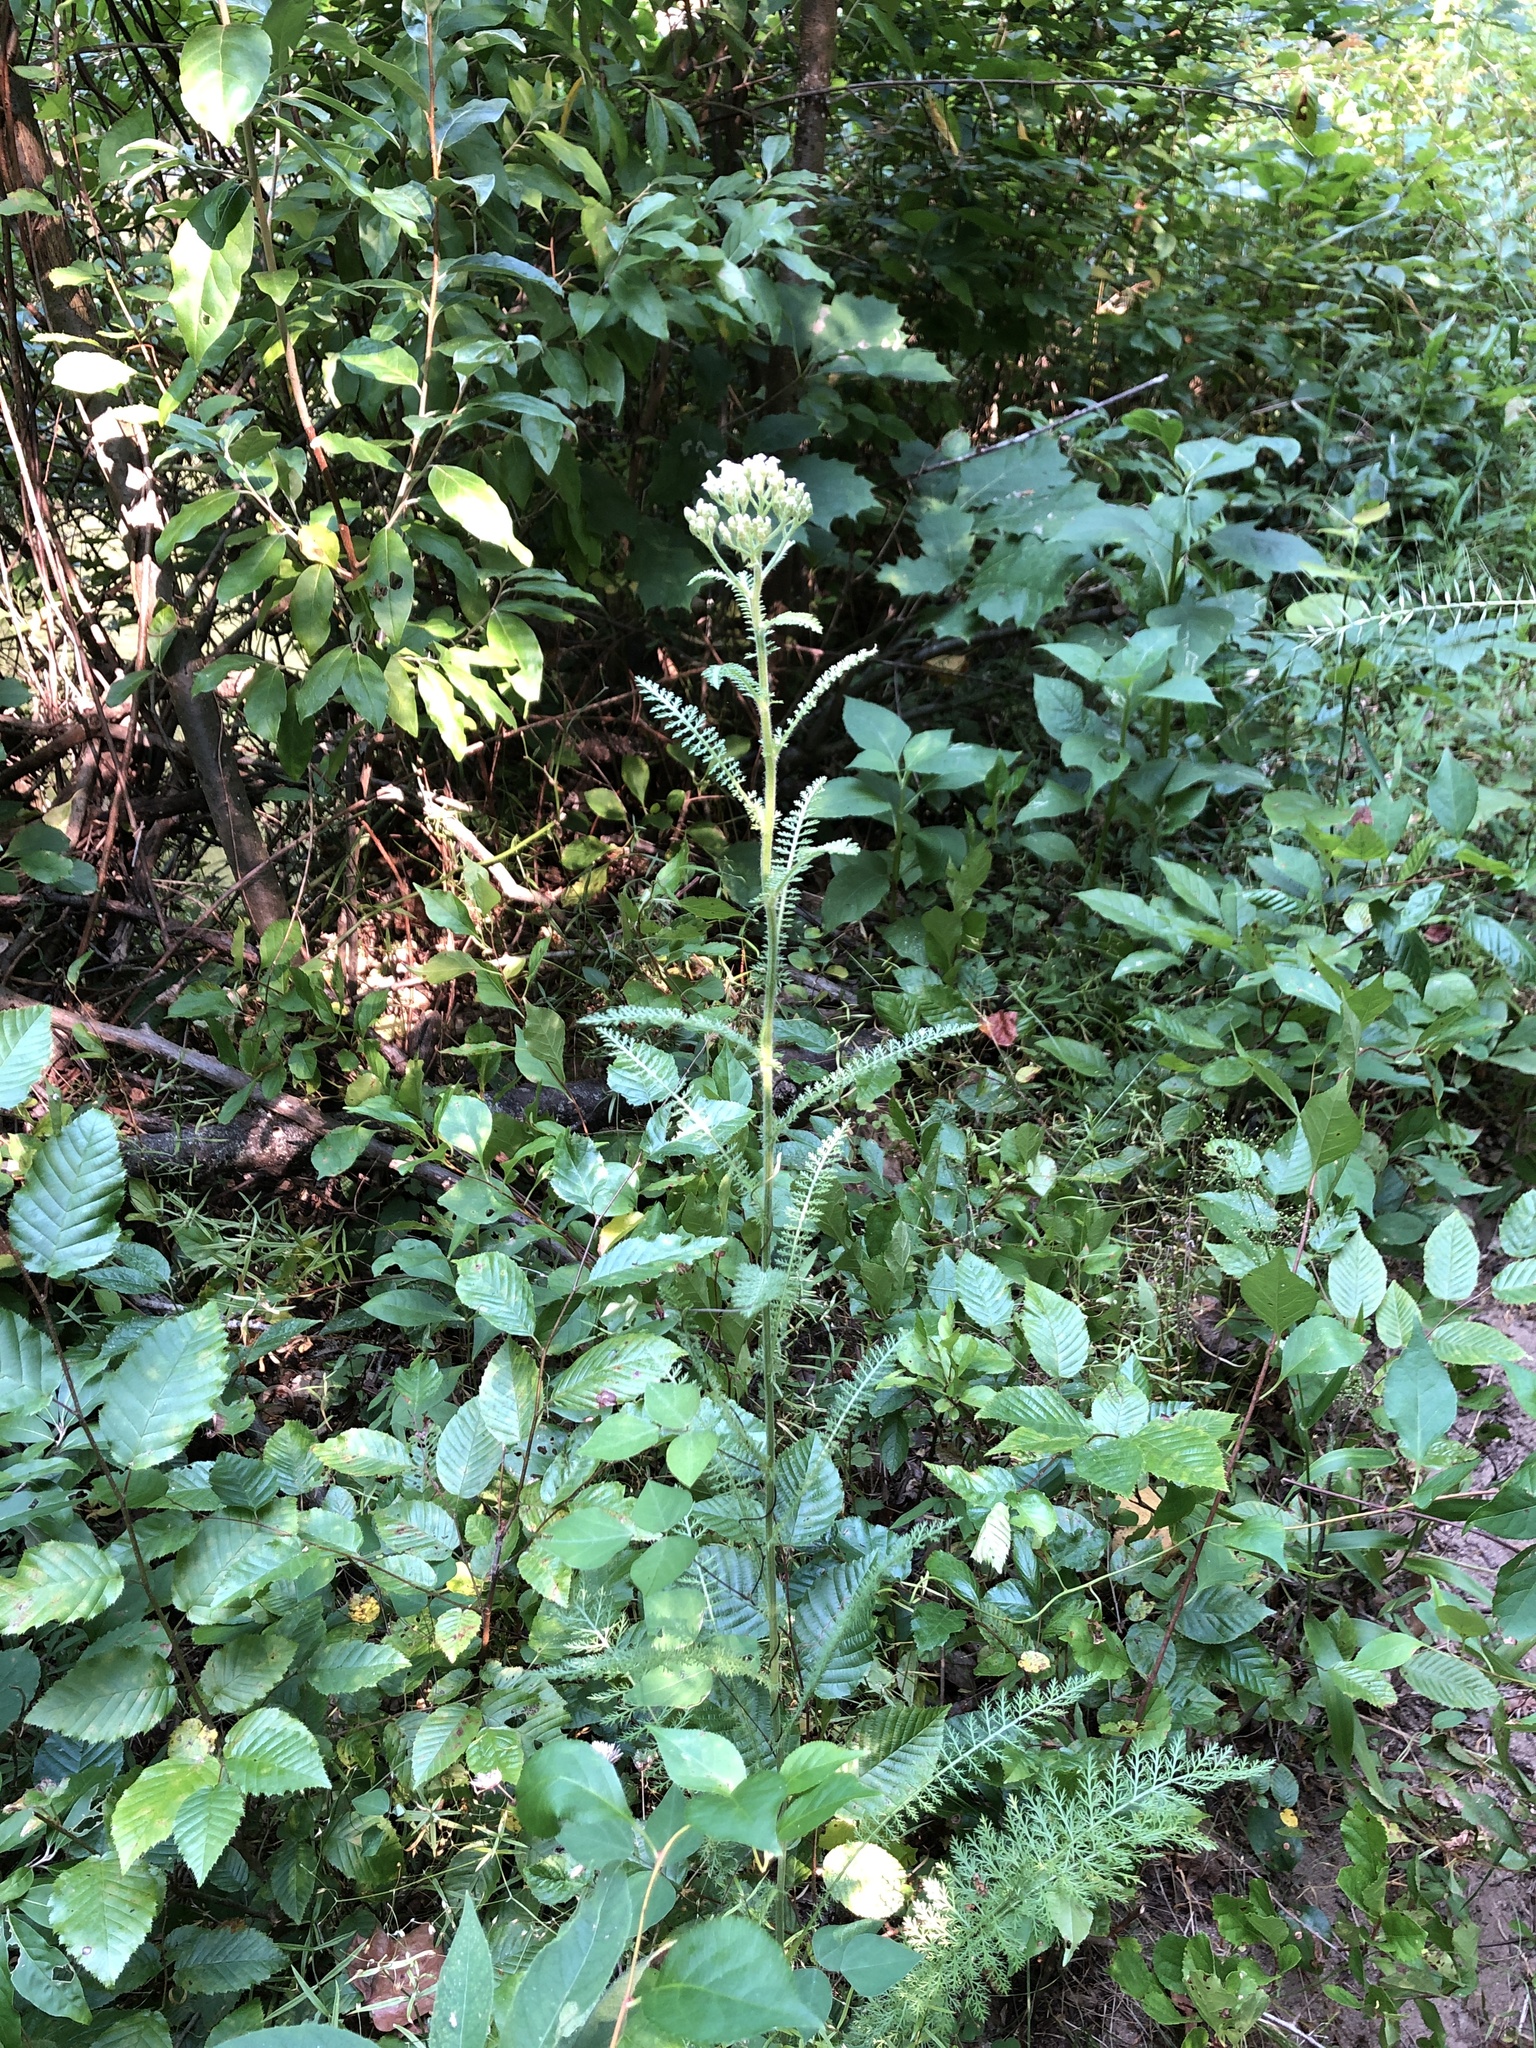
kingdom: Plantae
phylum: Tracheophyta
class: Magnoliopsida
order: Asterales
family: Asteraceae
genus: Achillea
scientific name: Achillea millefolium
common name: Yarrow
